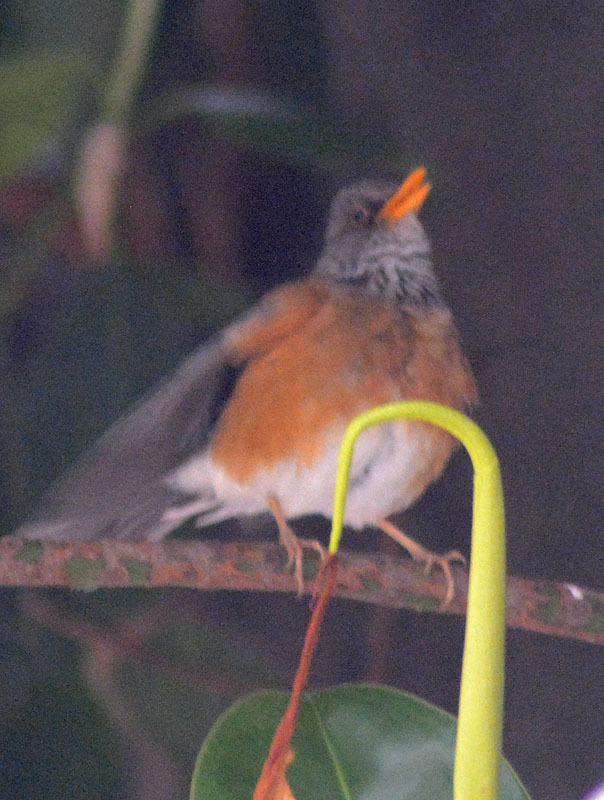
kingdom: Animalia
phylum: Chordata
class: Aves
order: Passeriformes
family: Turdidae
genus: Turdus
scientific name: Turdus rufopalliatus
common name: Rufous-backed robin
